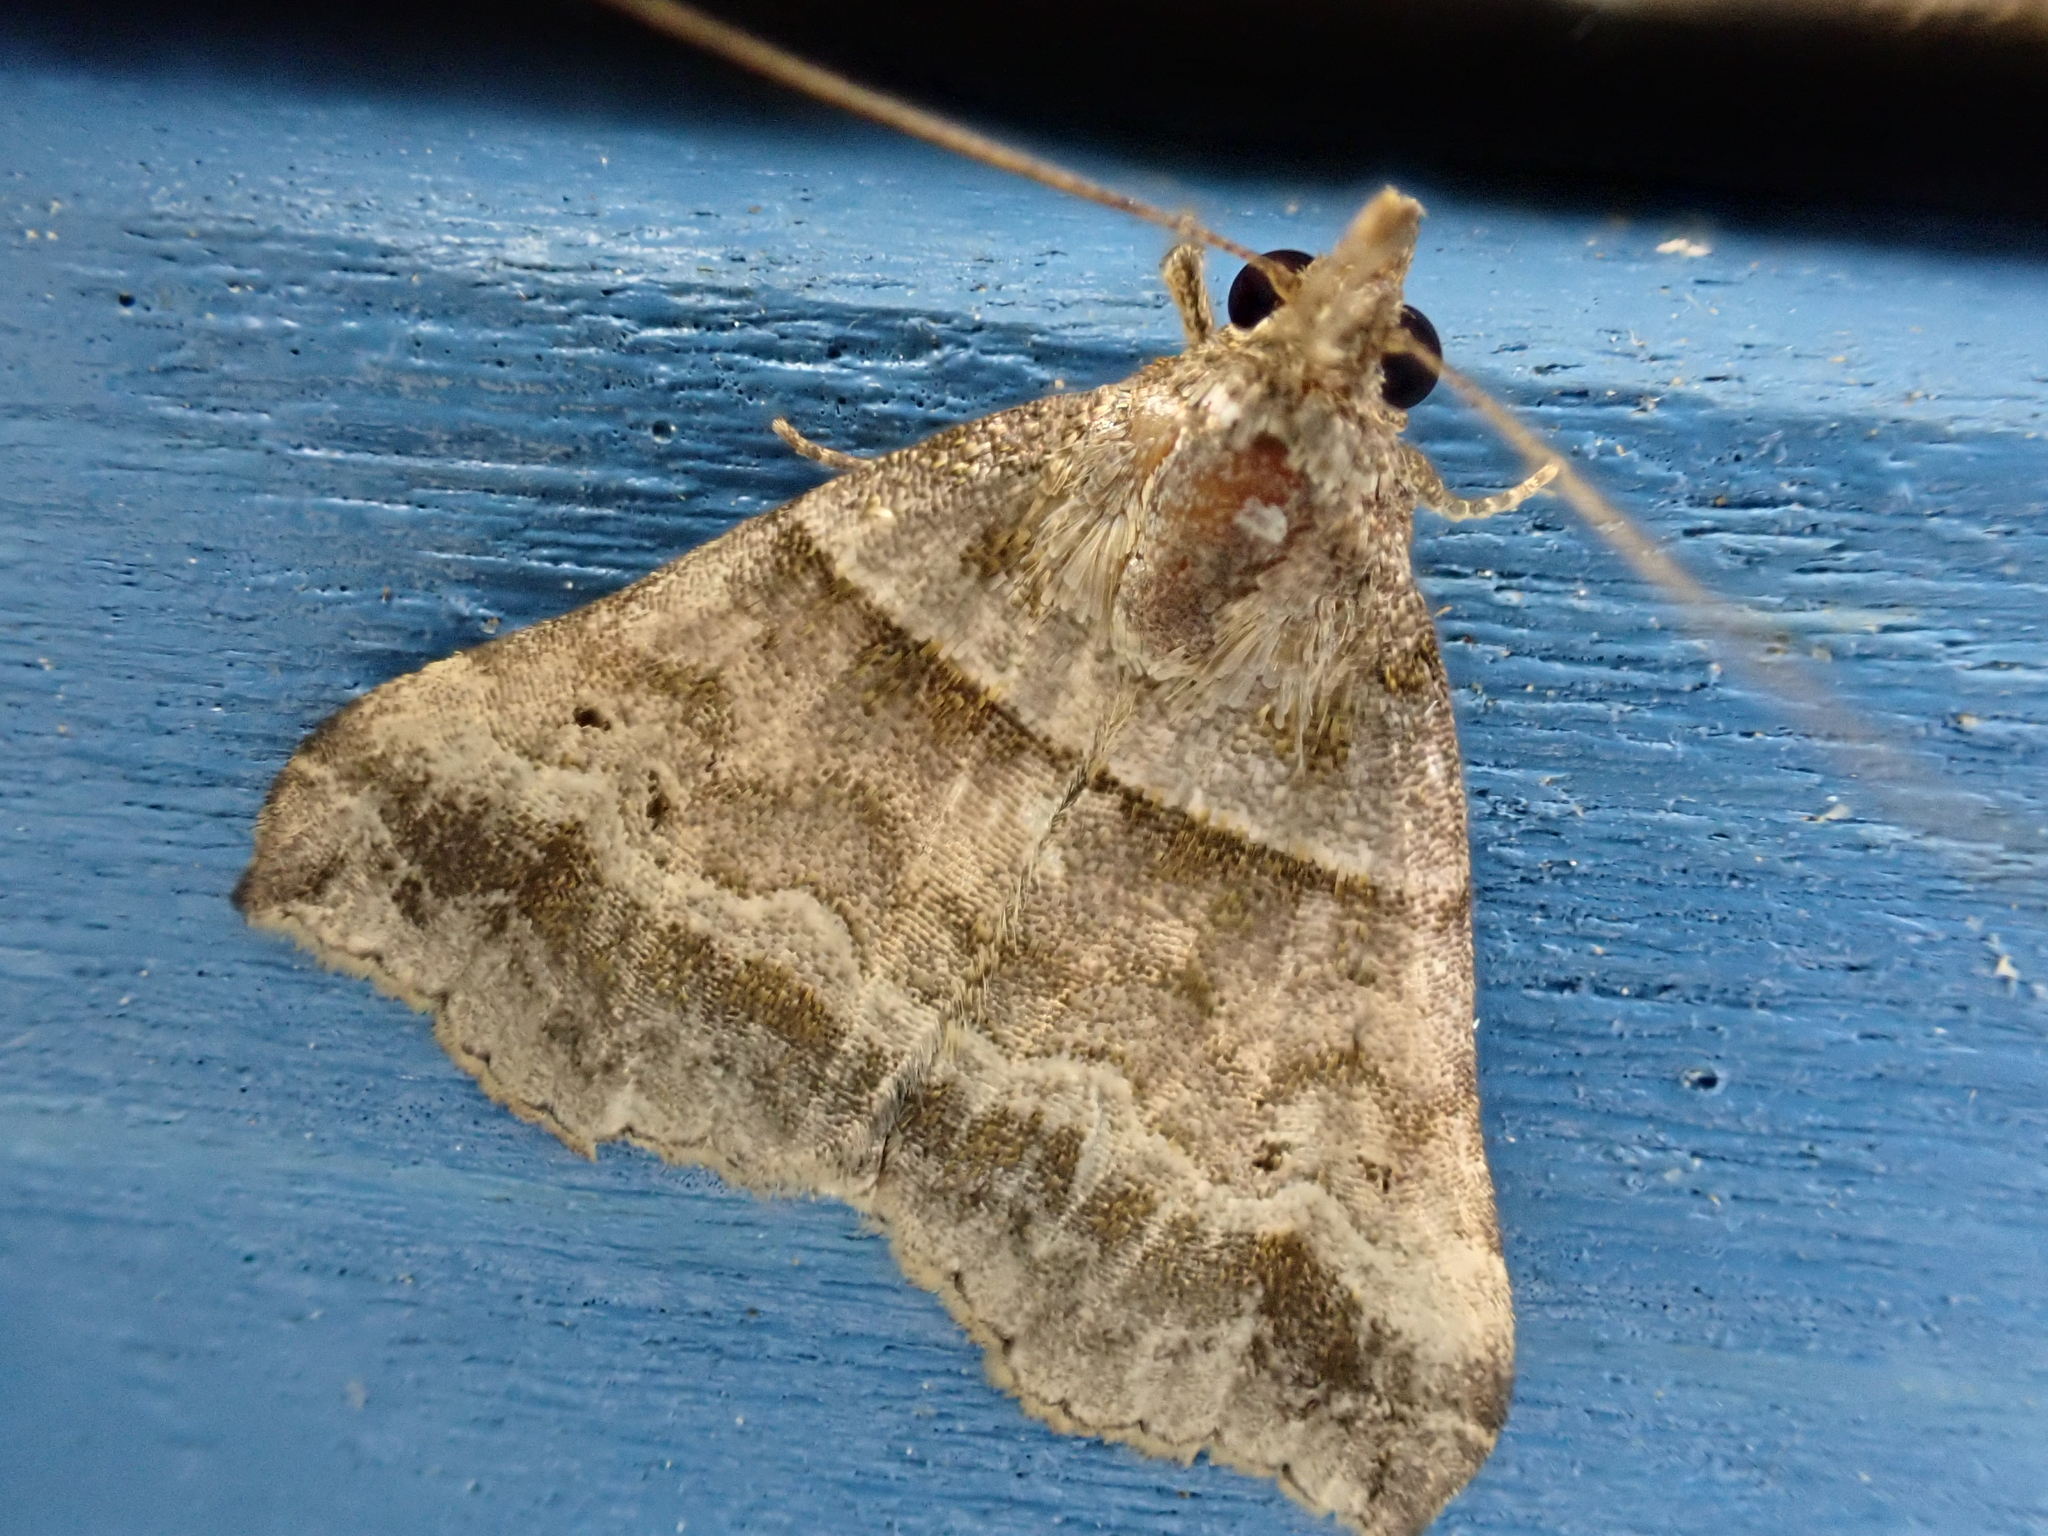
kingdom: Animalia
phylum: Arthropoda
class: Insecta
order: Lepidoptera
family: Erebidae
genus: Phaeolita
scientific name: Phaeolita pyramusalis
